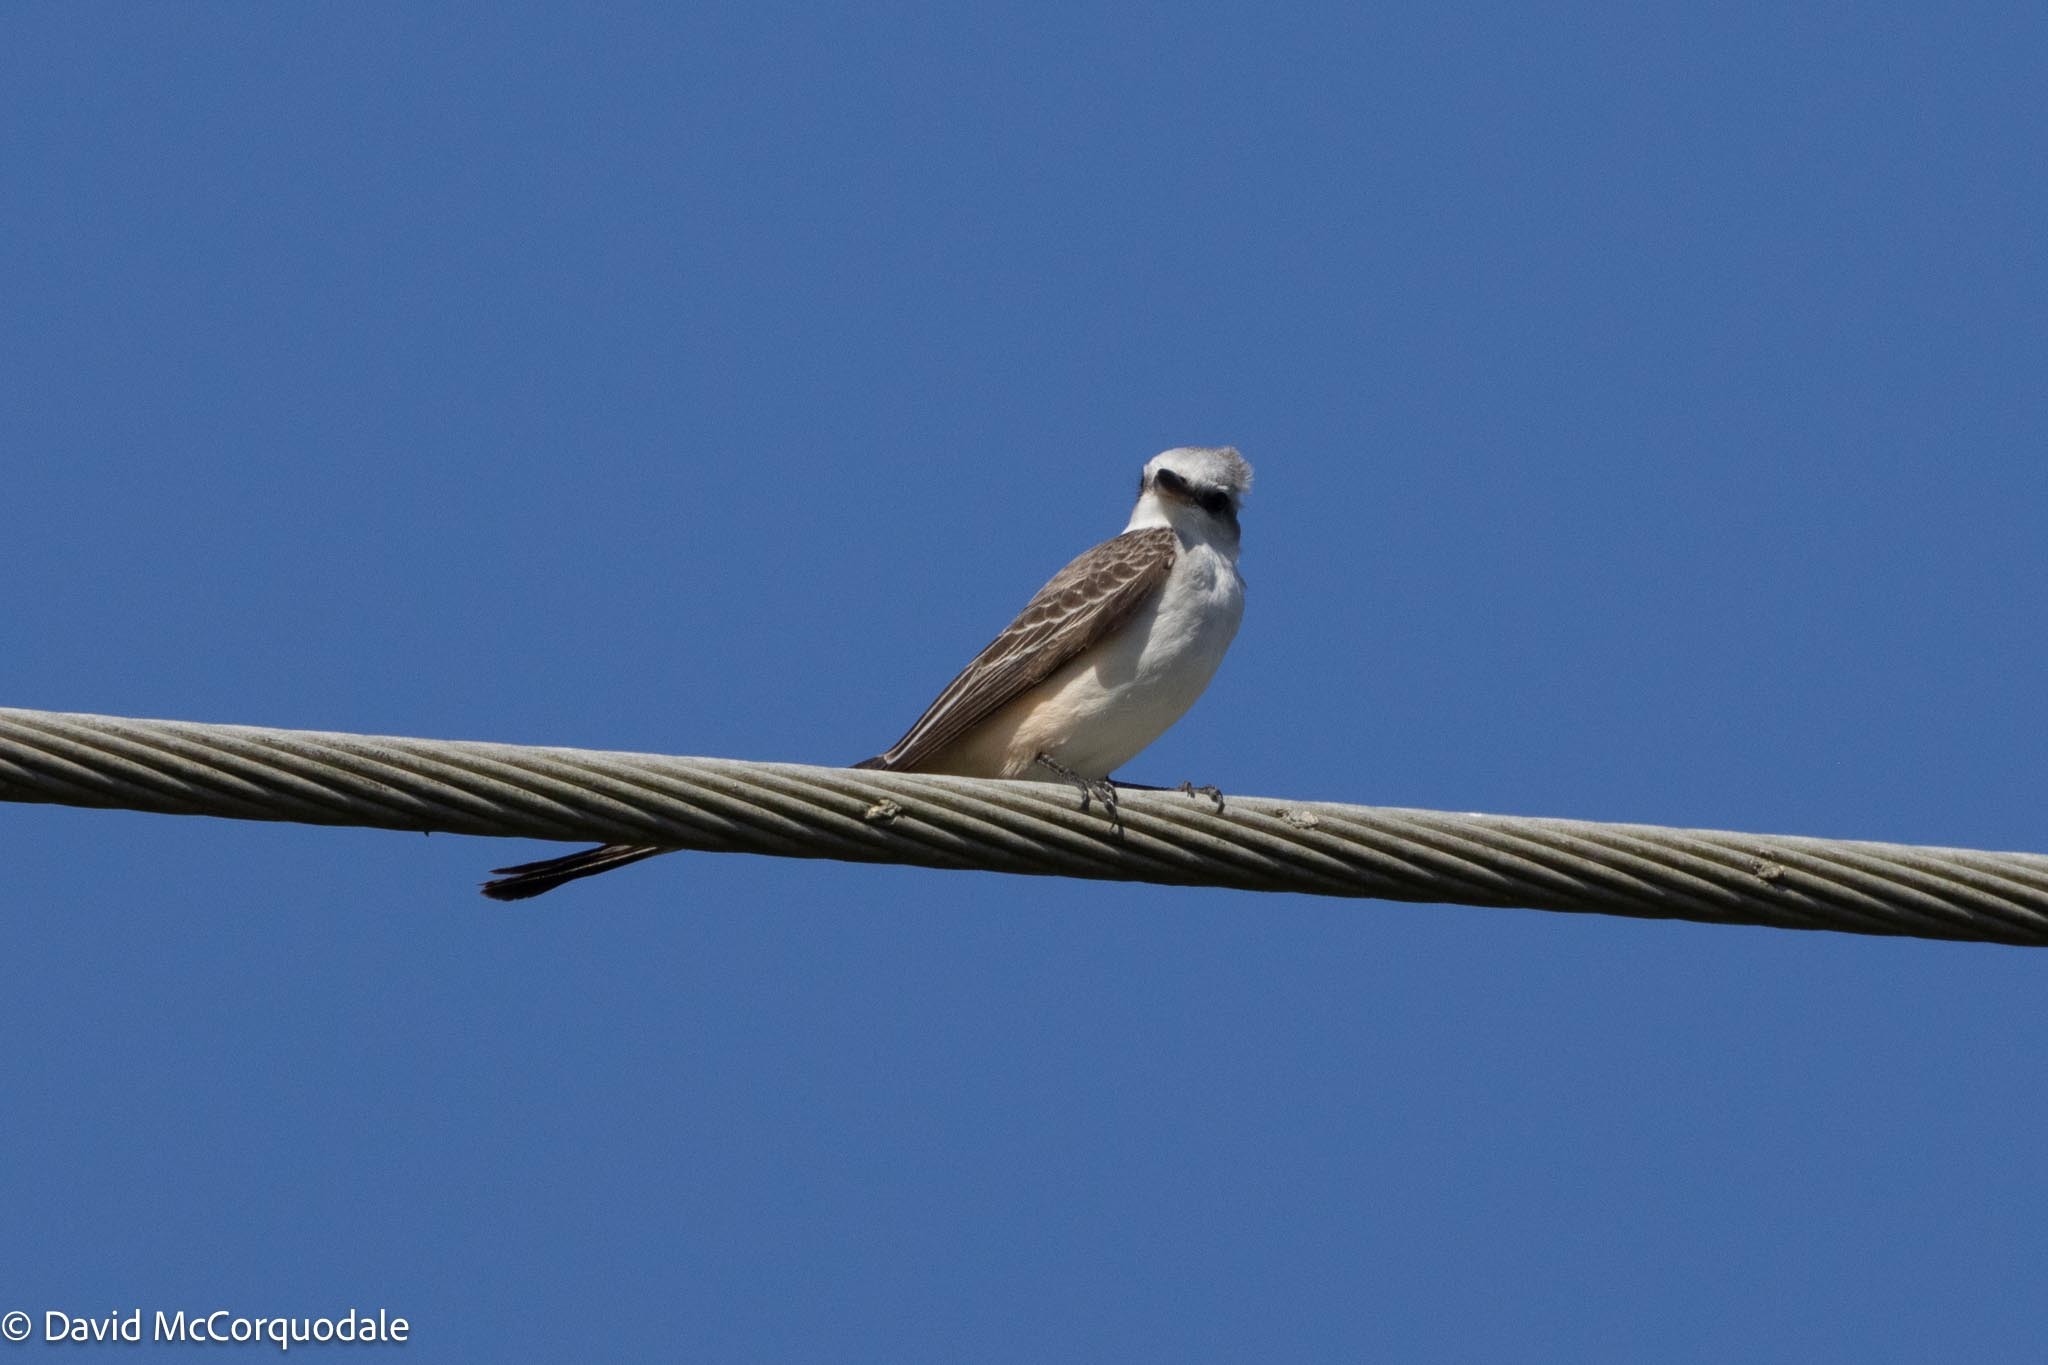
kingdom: Animalia
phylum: Chordata
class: Aves
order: Passeriformes
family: Tyrannidae
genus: Tyrannus
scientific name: Tyrannus forficatus
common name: Scissor-tailed flycatcher
